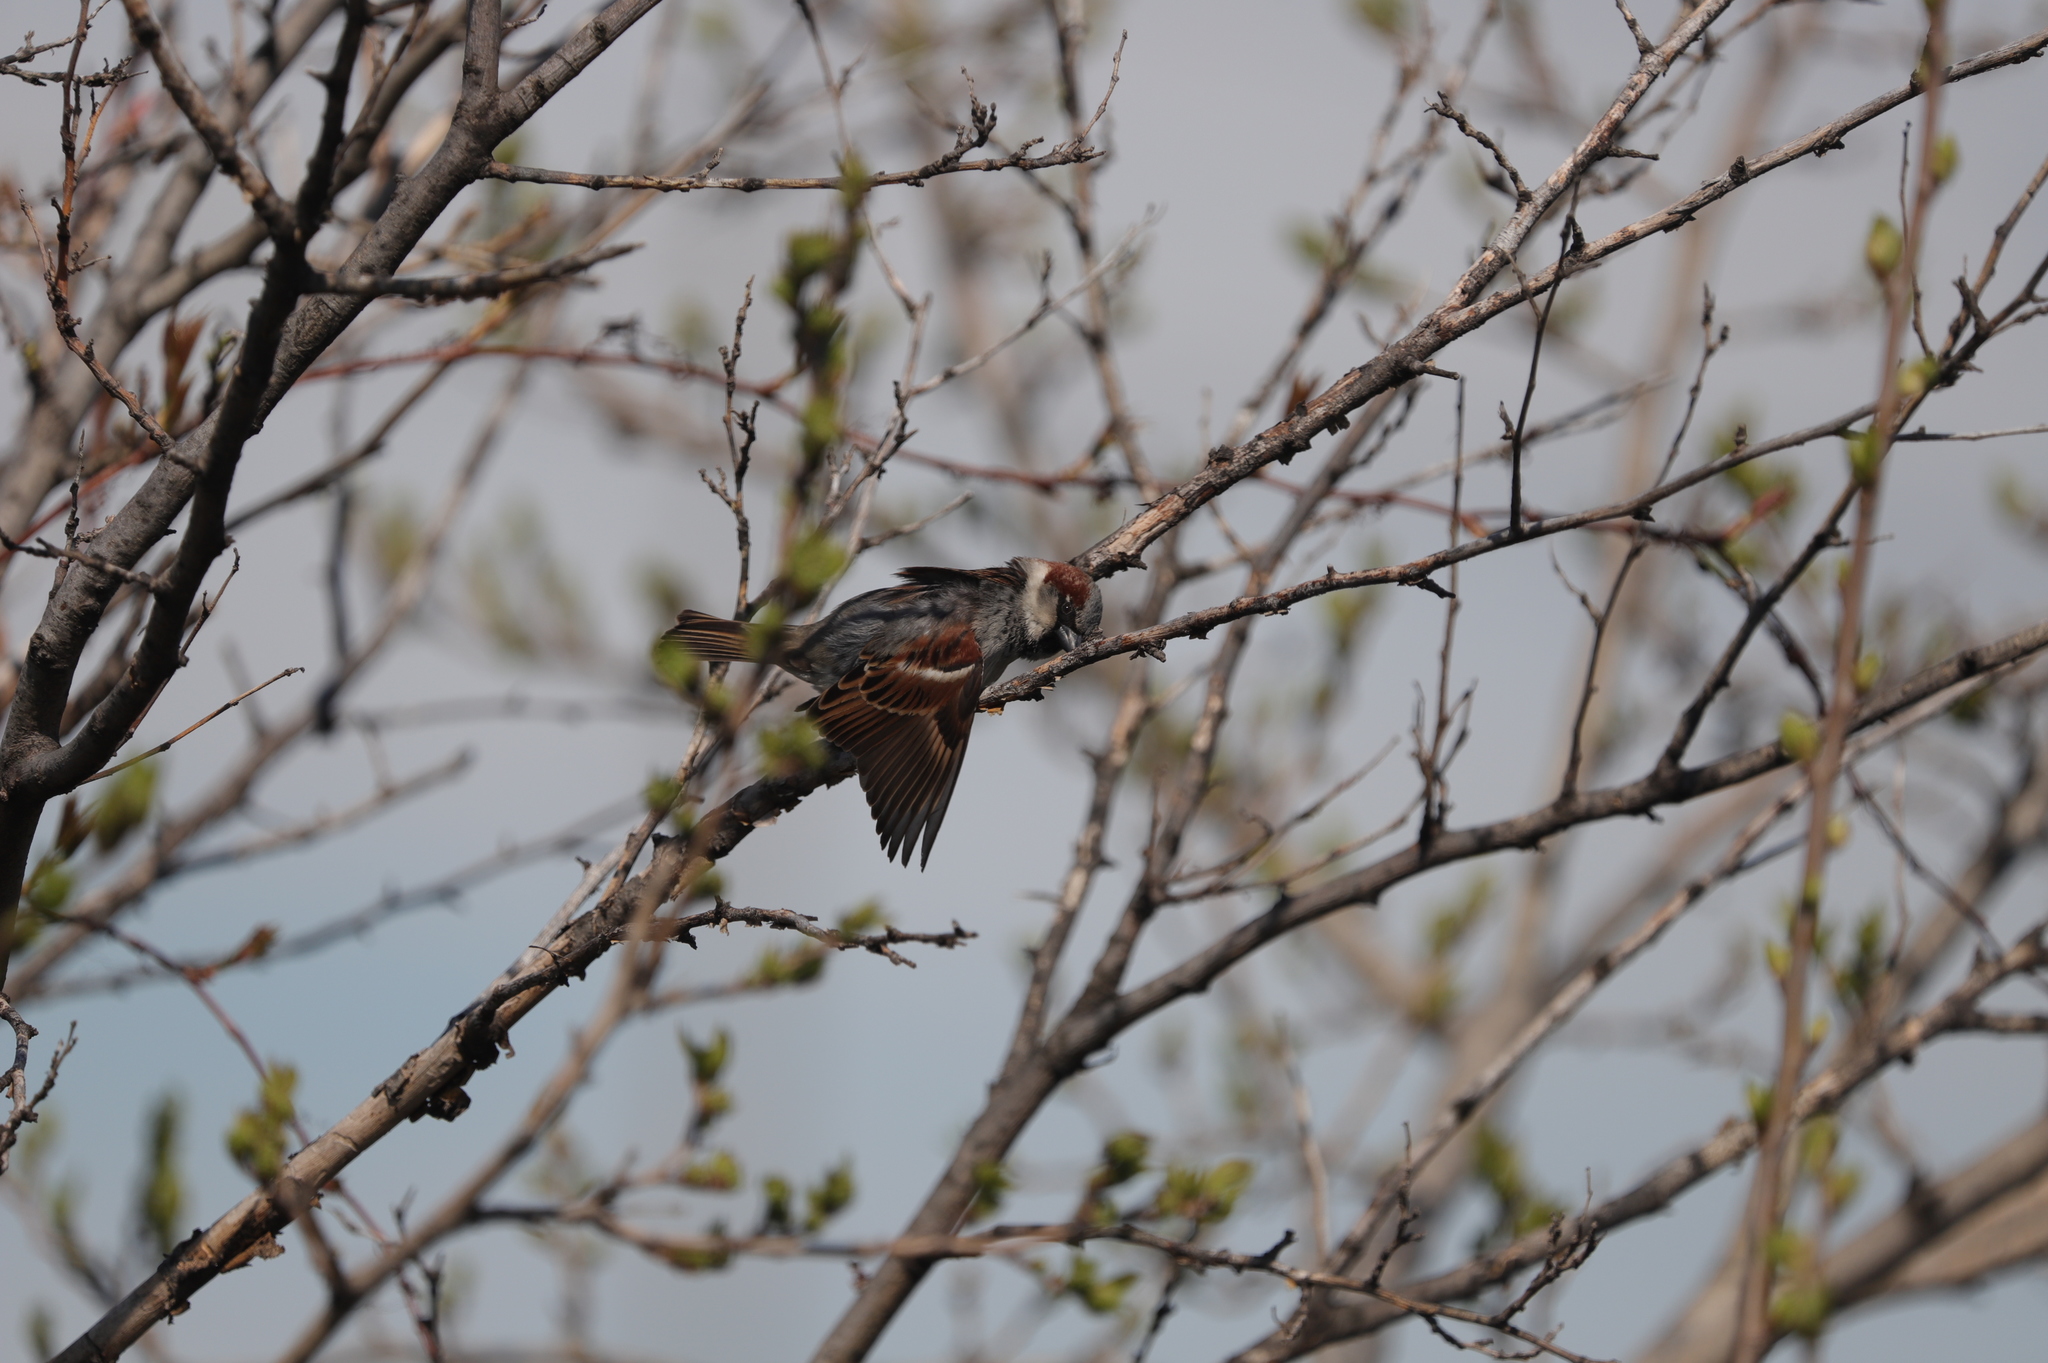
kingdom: Animalia
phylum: Chordata
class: Aves
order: Passeriformes
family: Passeridae
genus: Passer
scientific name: Passer domesticus
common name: House sparrow
